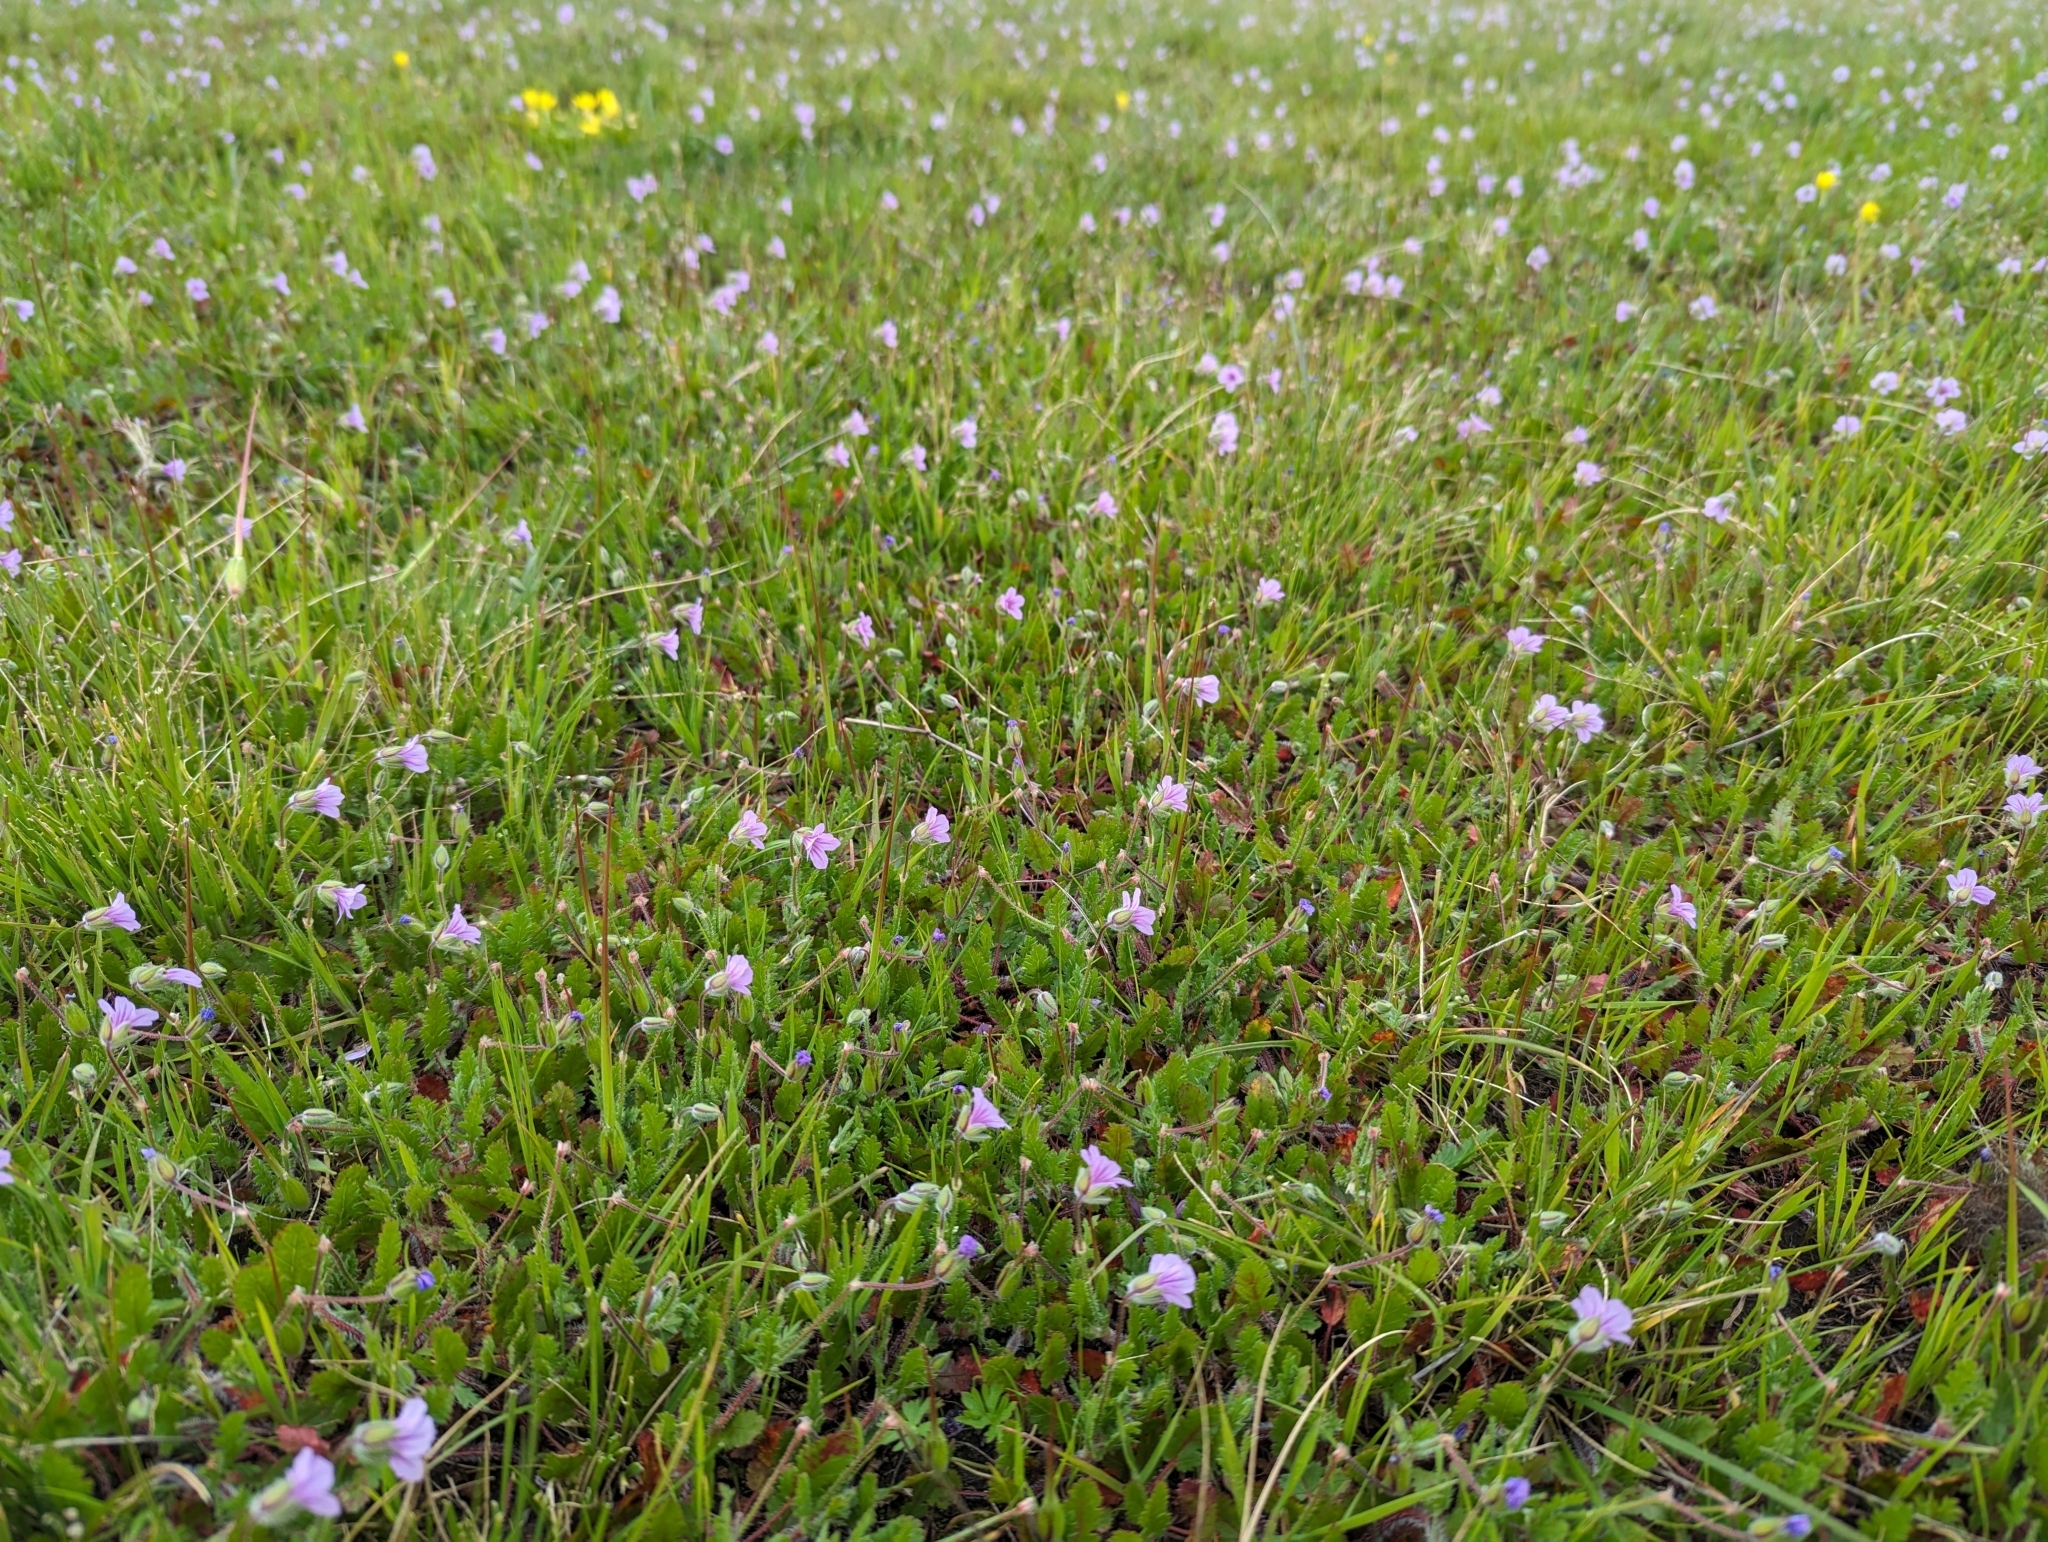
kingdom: Plantae
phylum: Tracheophyta
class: Magnoliopsida
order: Geraniales
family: Geraniaceae
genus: Erodium
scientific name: Erodium botrys
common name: Mediterranean stork's-bill
